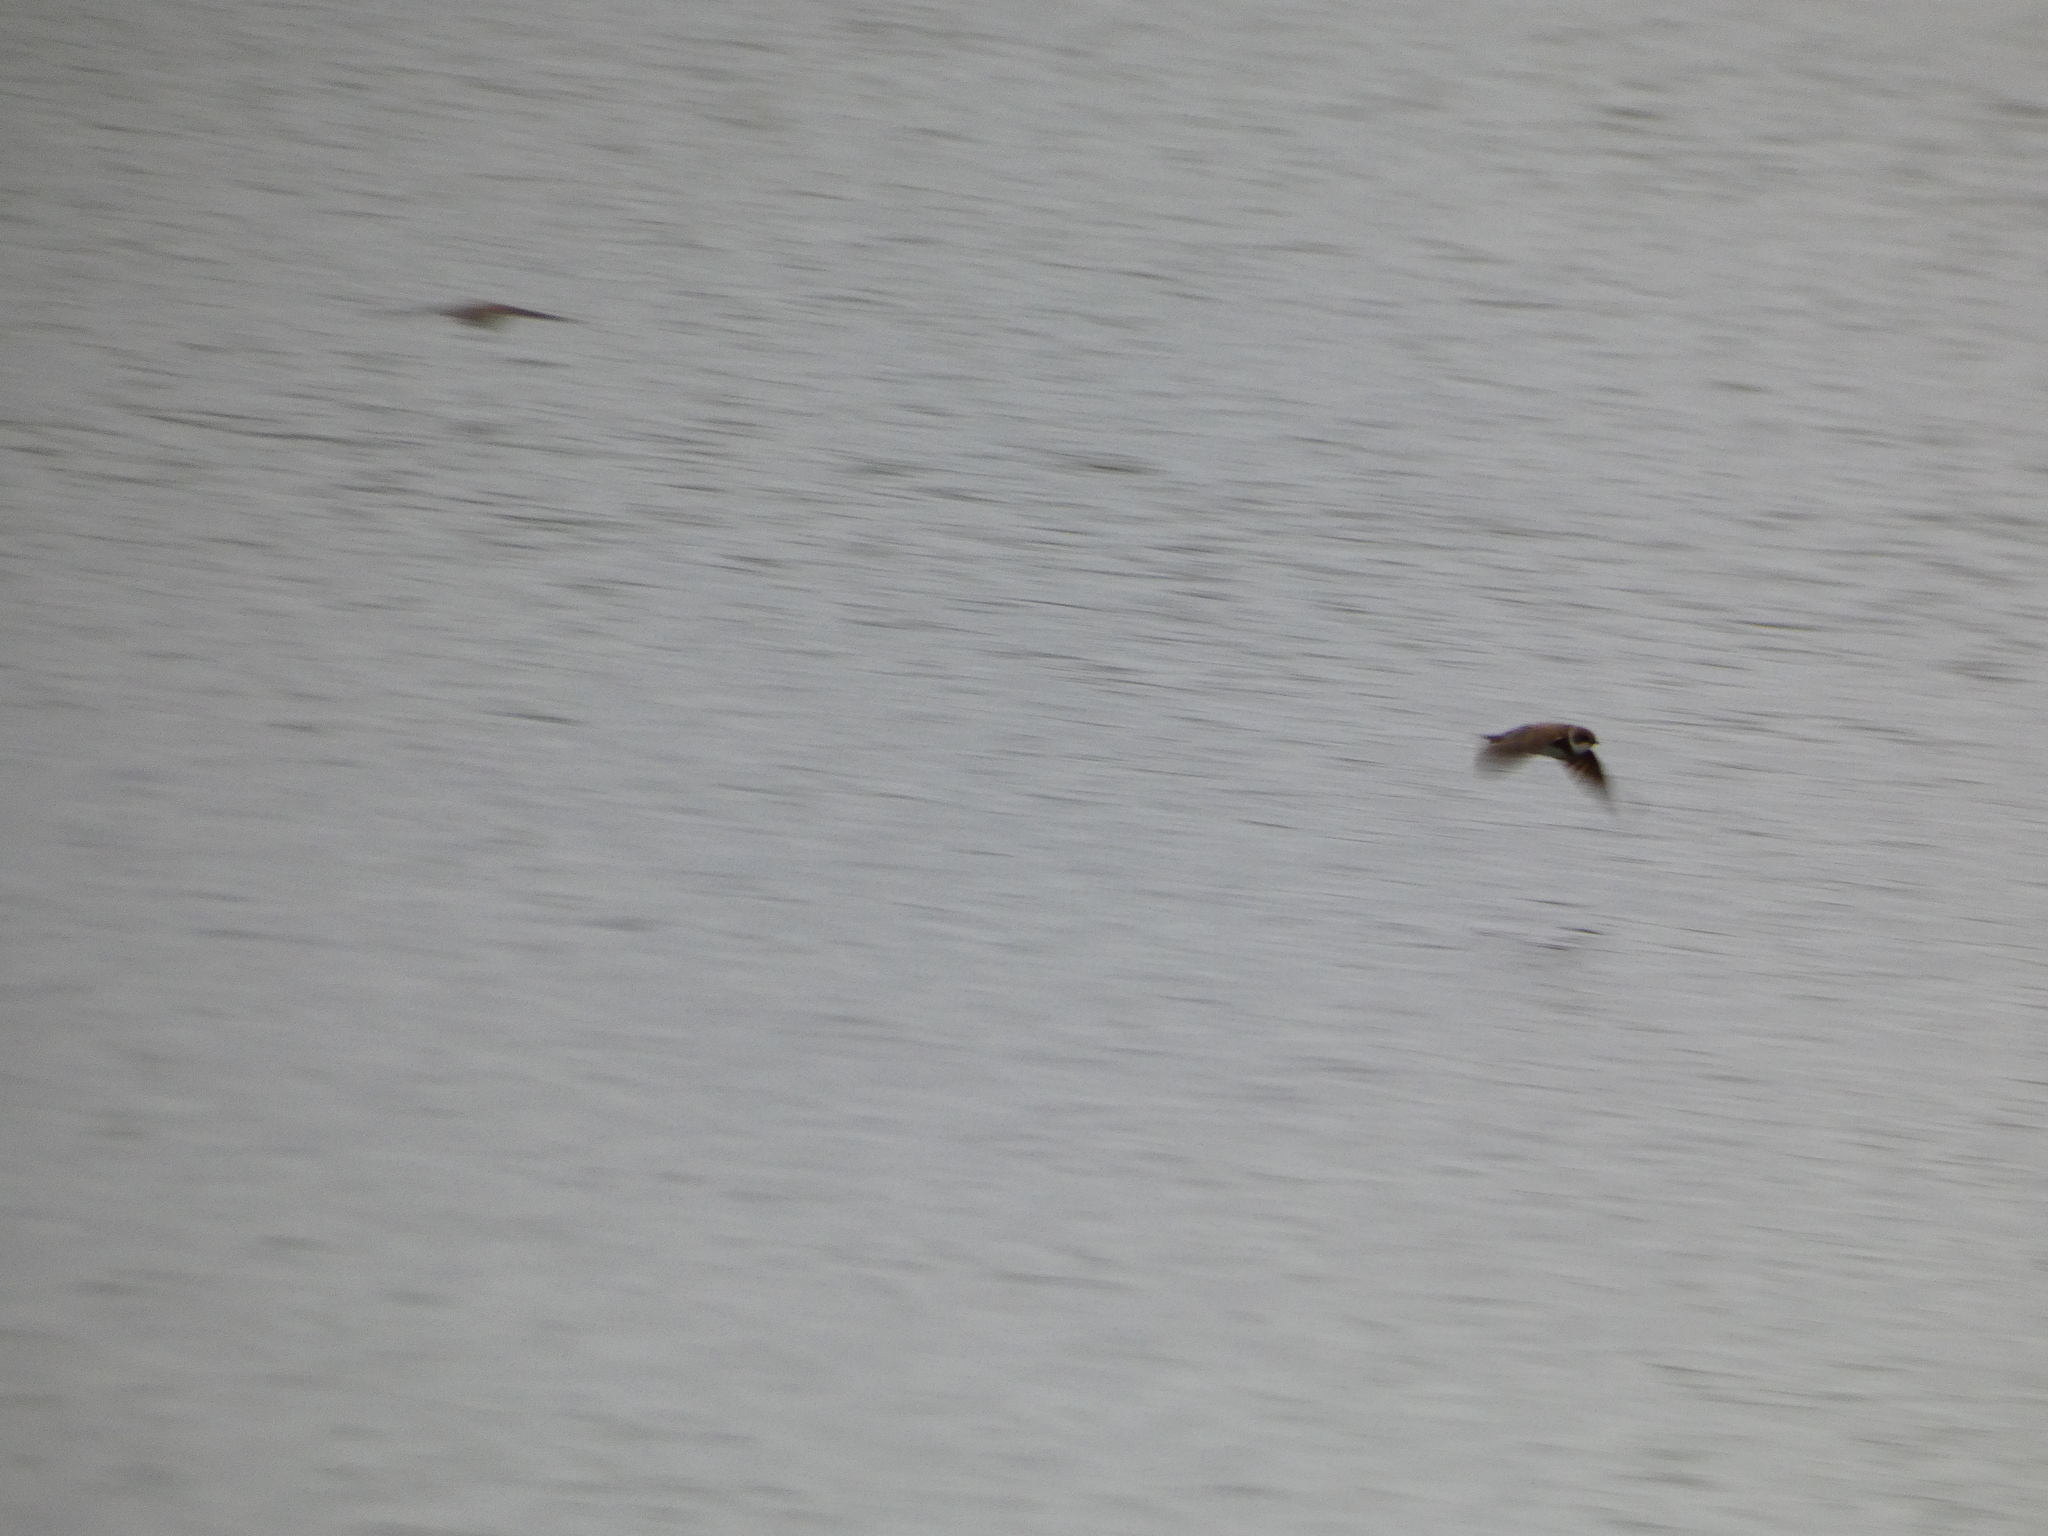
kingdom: Animalia
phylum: Chordata
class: Aves
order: Passeriformes
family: Hirundinidae
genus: Riparia
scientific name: Riparia riparia
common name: Sand martin
